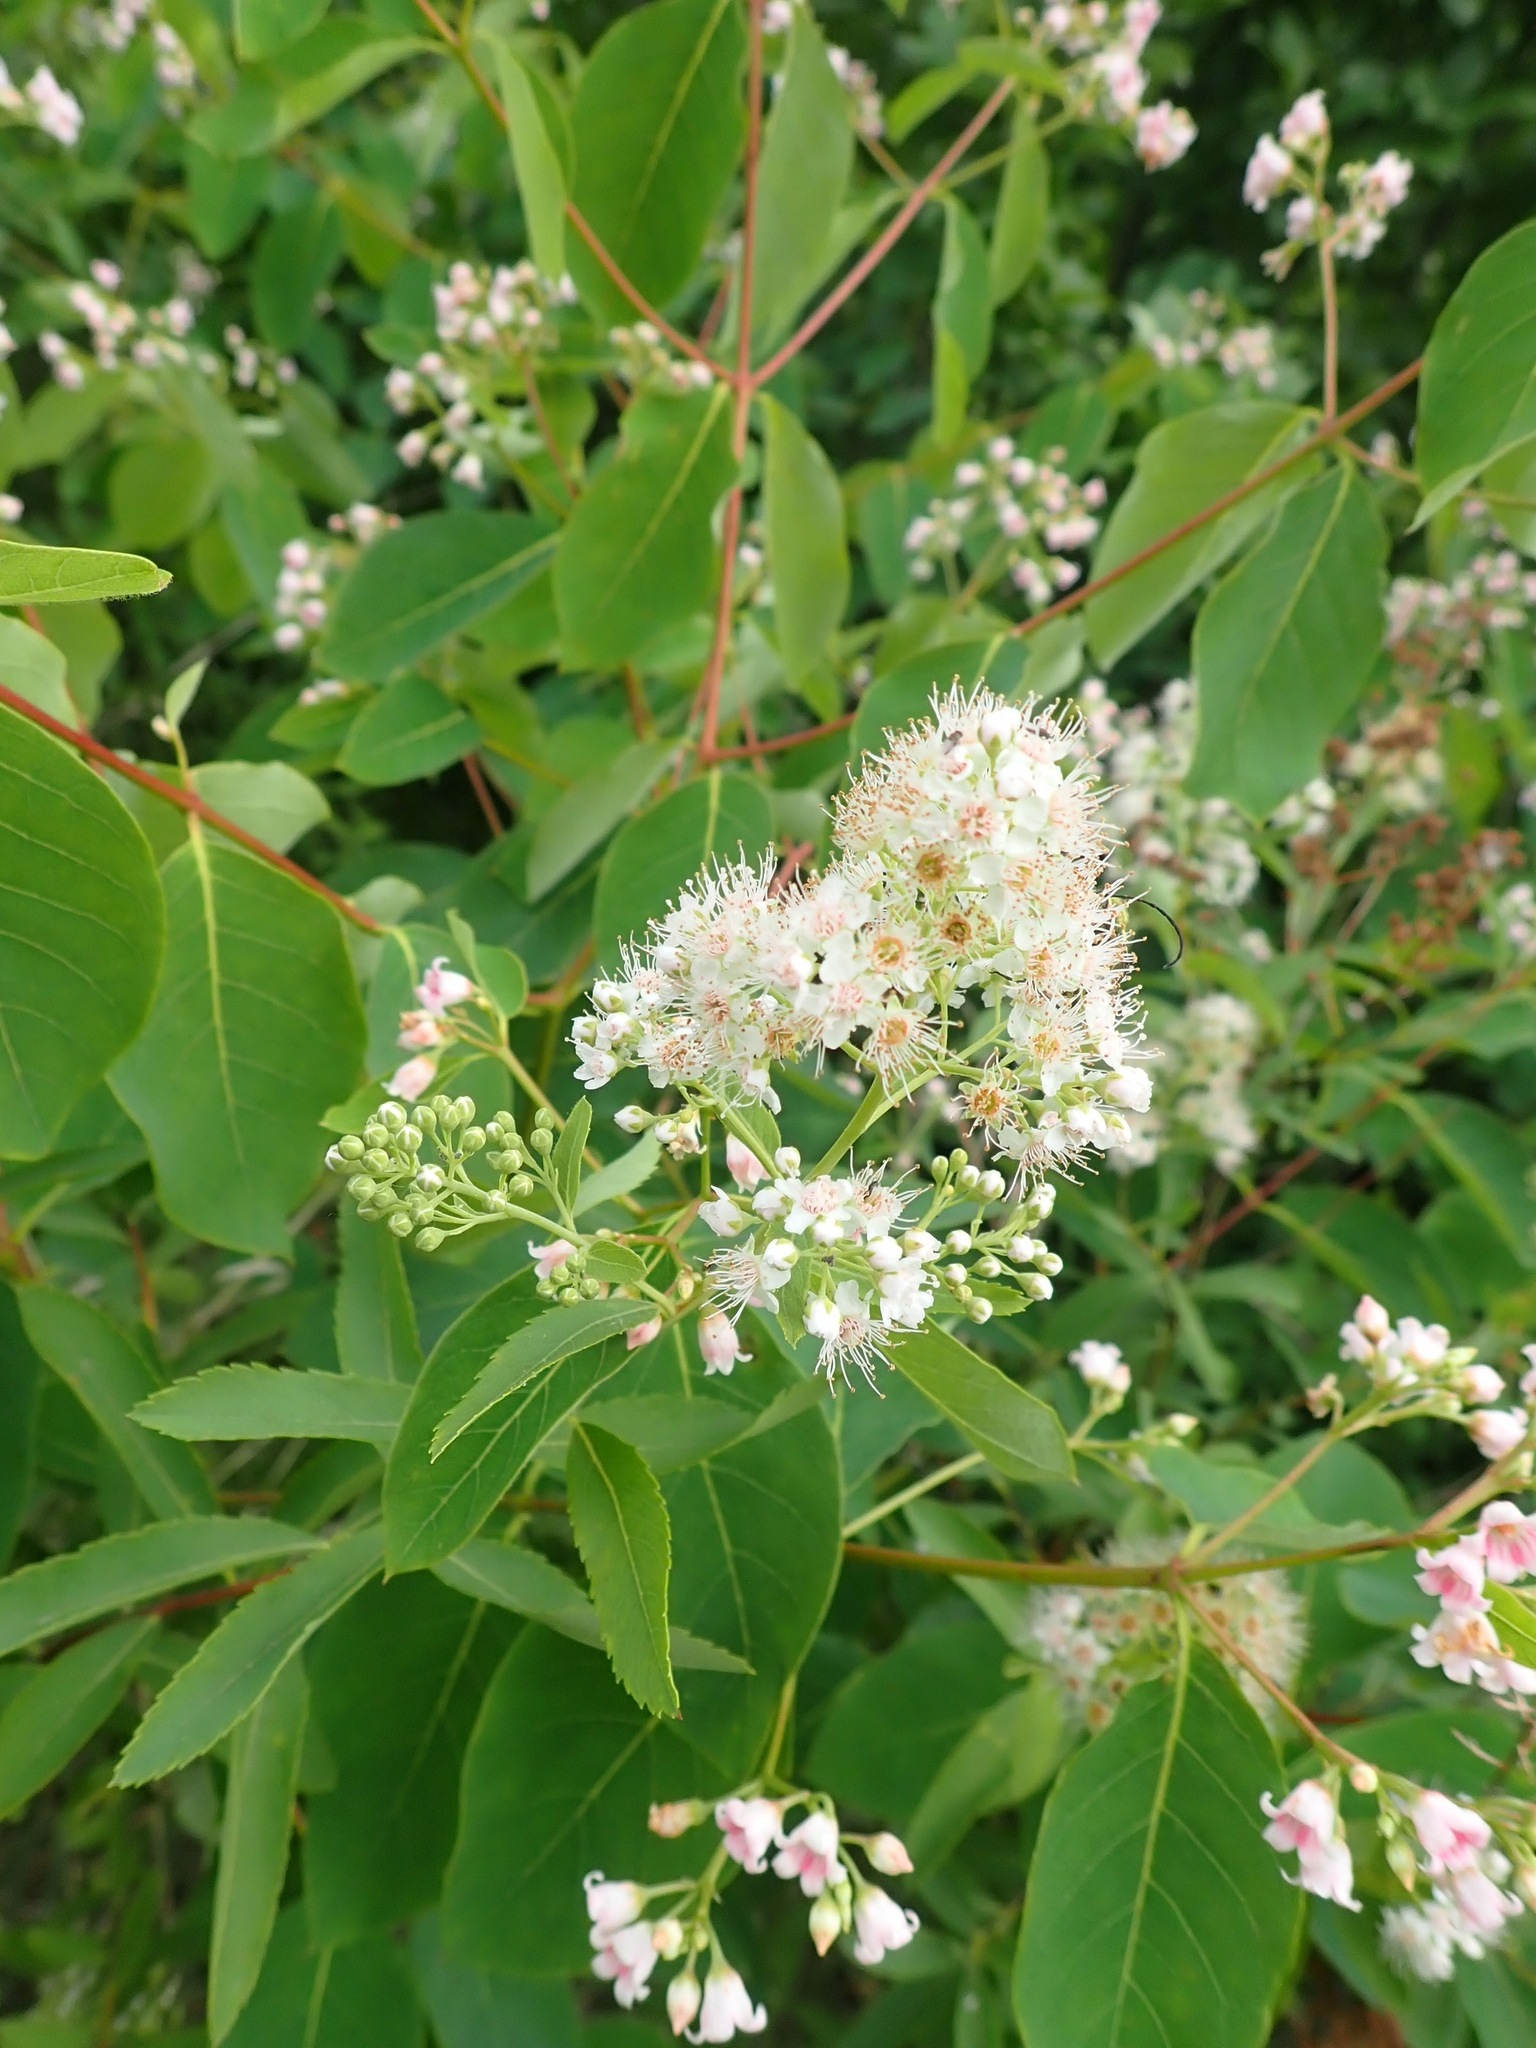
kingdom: Plantae
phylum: Tracheophyta
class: Magnoliopsida
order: Rosales
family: Rosaceae
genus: Spiraea
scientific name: Spiraea alba
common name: Pale bridewort
